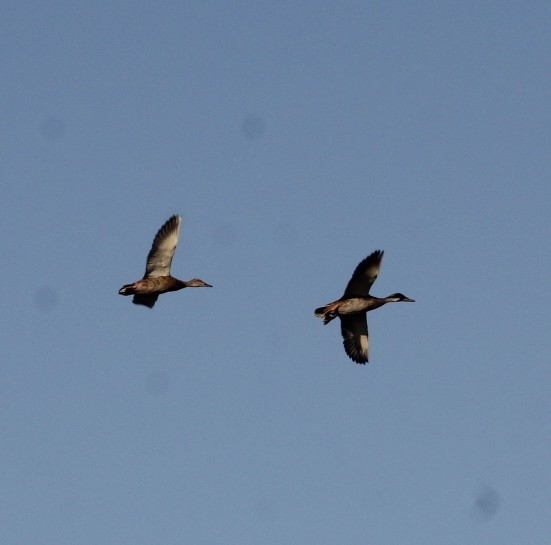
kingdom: Animalia
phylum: Chordata
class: Aves
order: Anseriformes
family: Anatidae
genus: Anas
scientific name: Anas platyrhynchos
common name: Mallard
